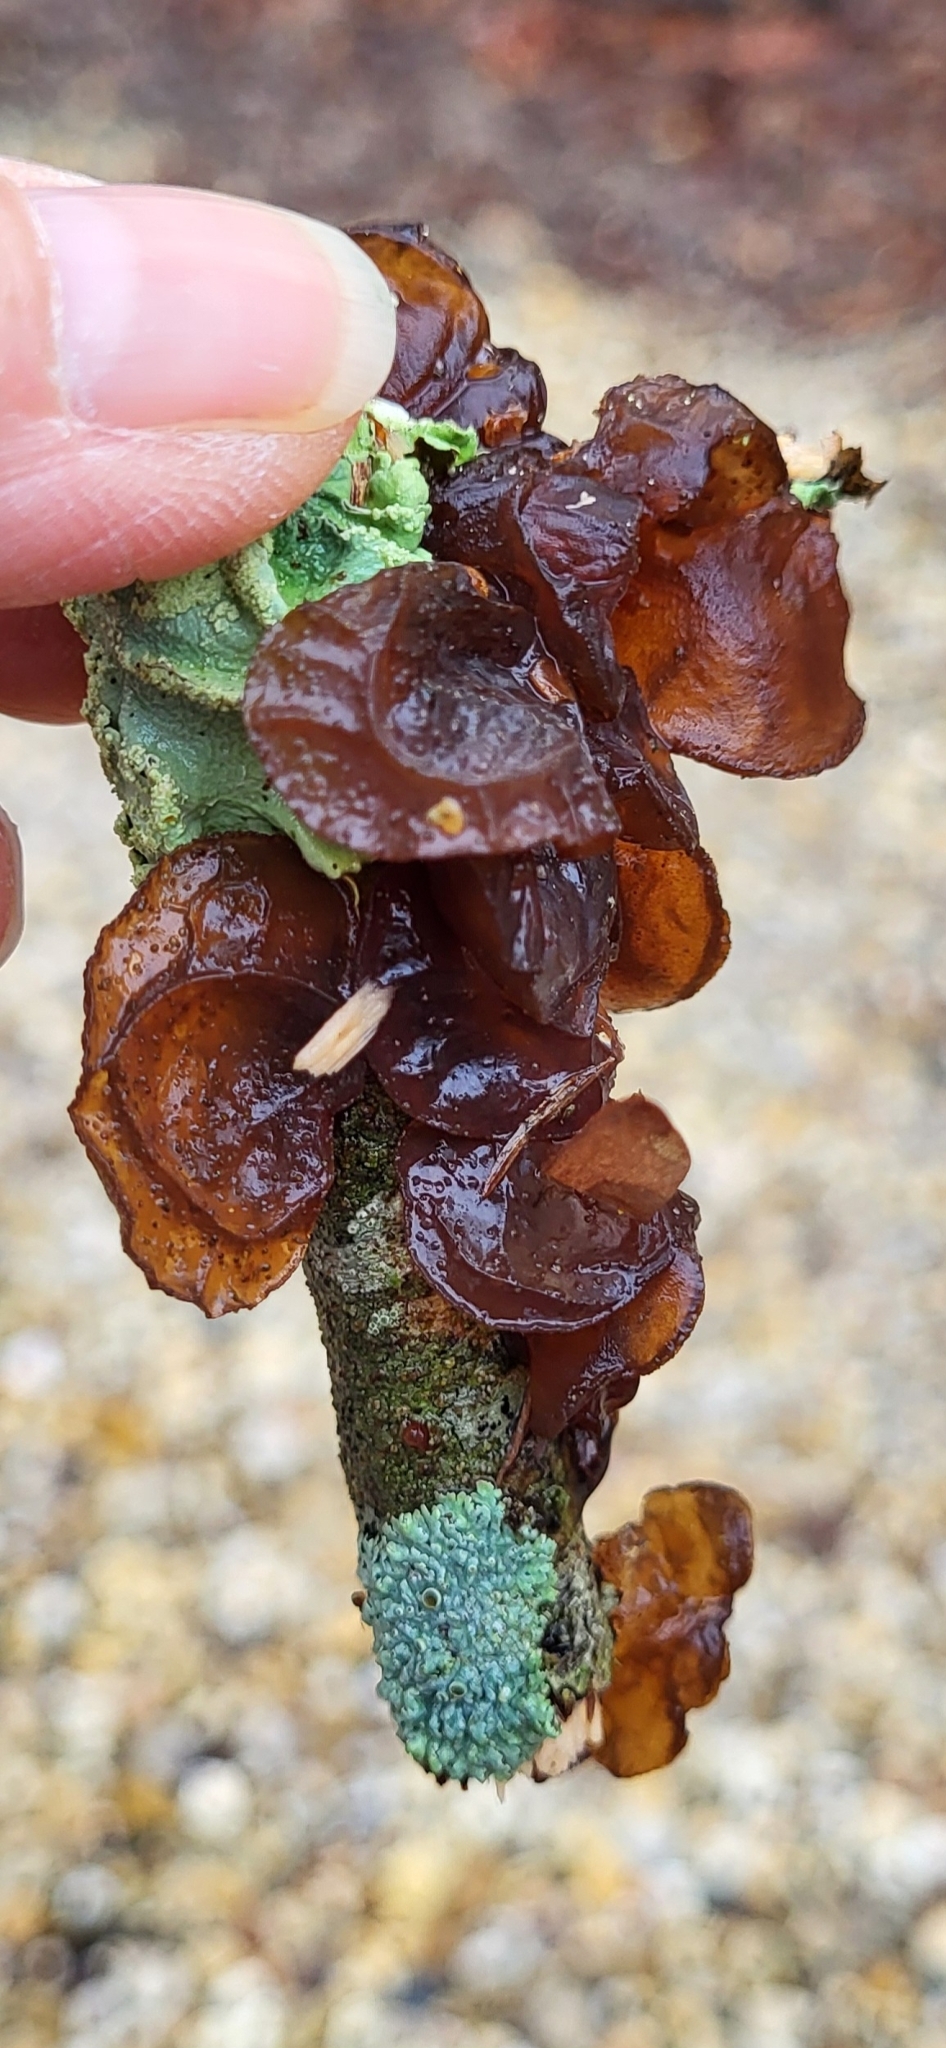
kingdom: Fungi
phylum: Basidiomycota
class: Agaricomycetes
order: Auriculariales
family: Auriculariaceae
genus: Exidia
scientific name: Exidia
